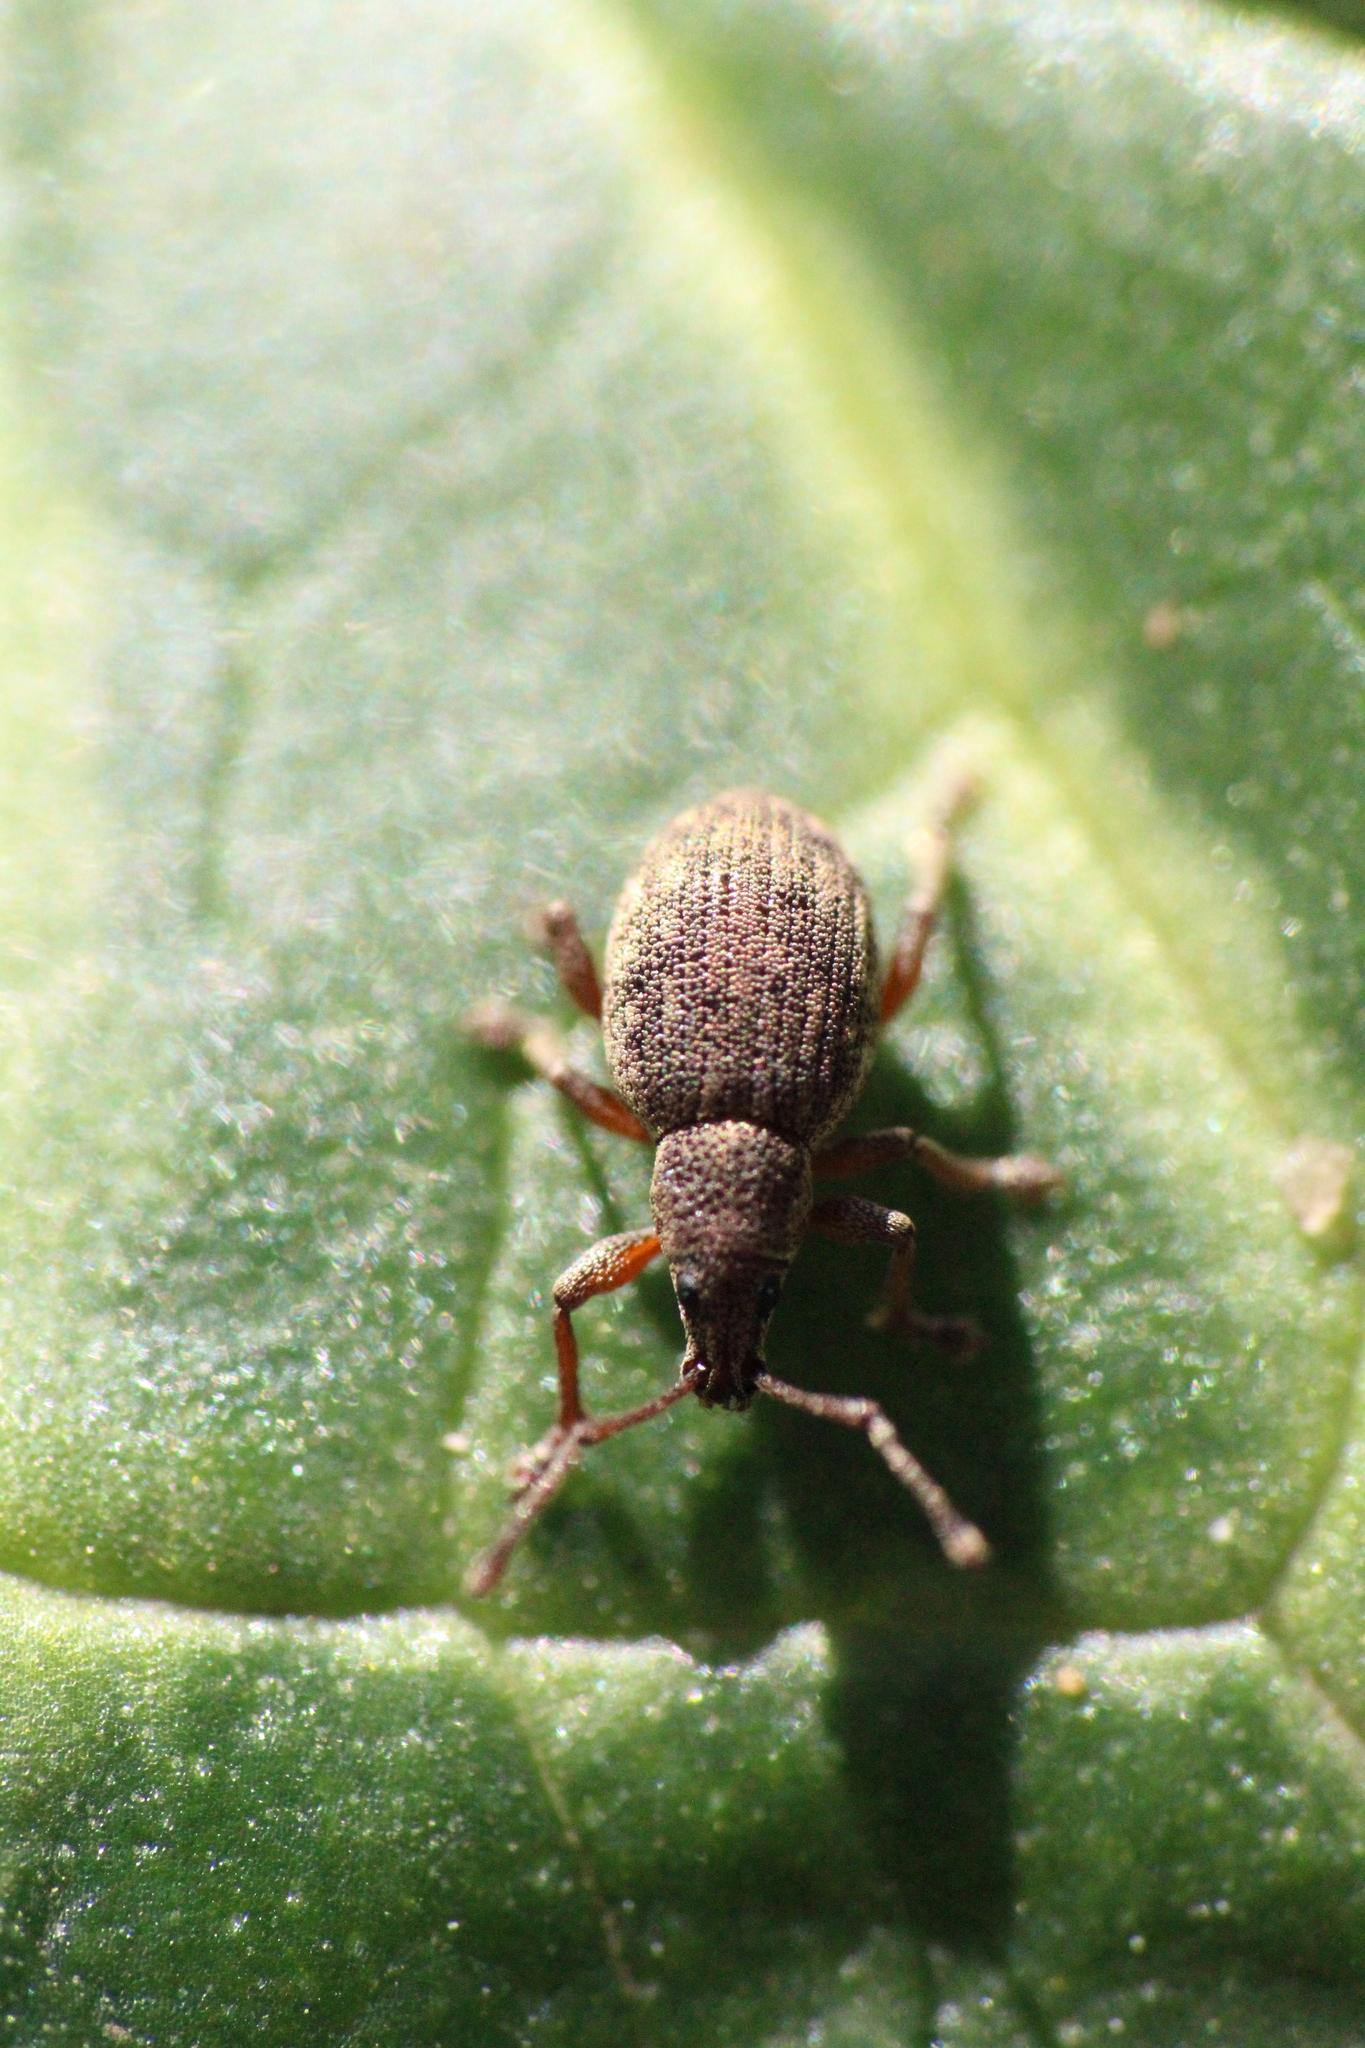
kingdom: Animalia
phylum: Arthropoda
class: Insecta
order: Coleoptera
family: Curculionidae
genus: Peritelus
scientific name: Peritelus sphaeroides
